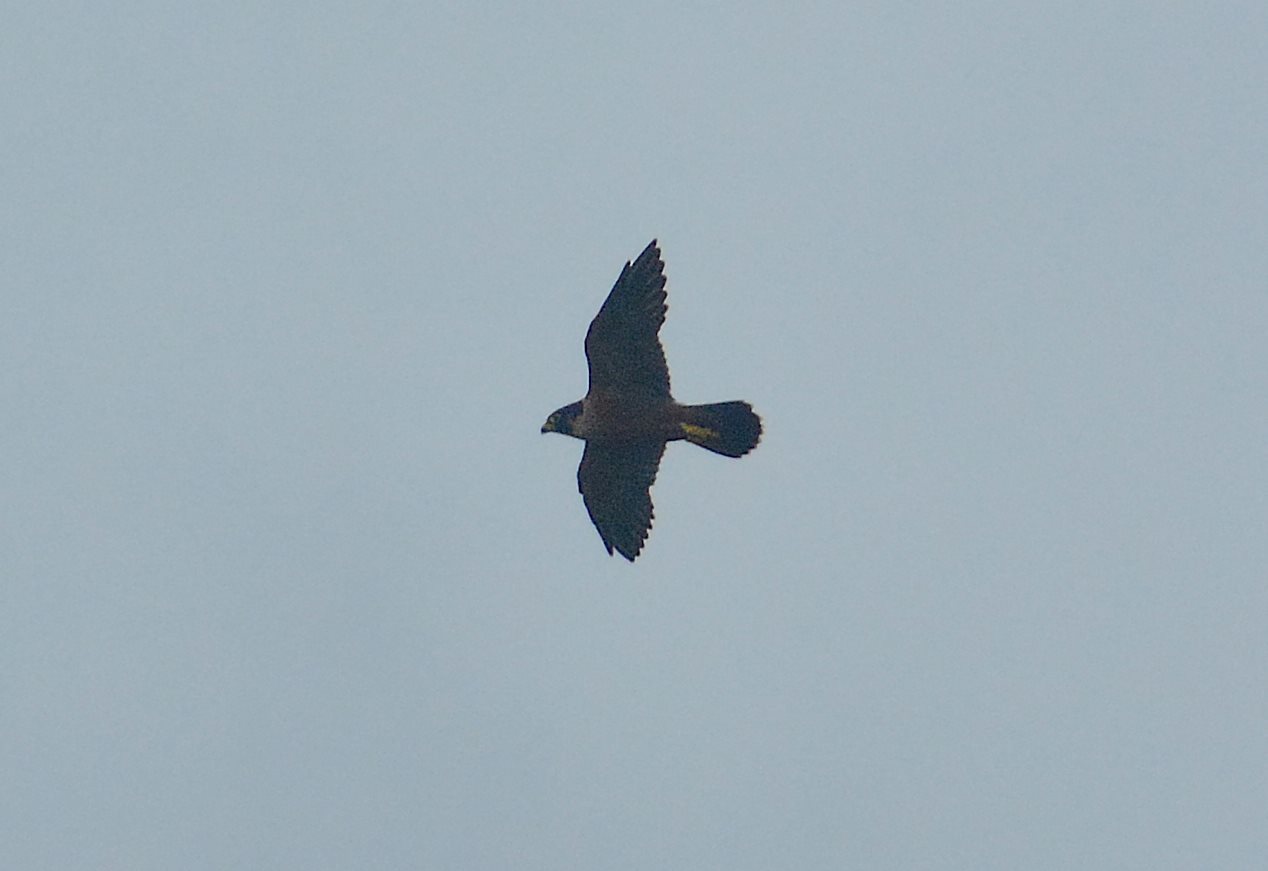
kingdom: Animalia
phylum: Chordata
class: Aves
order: Falconiformes
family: Falconidae
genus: Falco
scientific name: Falco peregrinus
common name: Peregrine falcon
